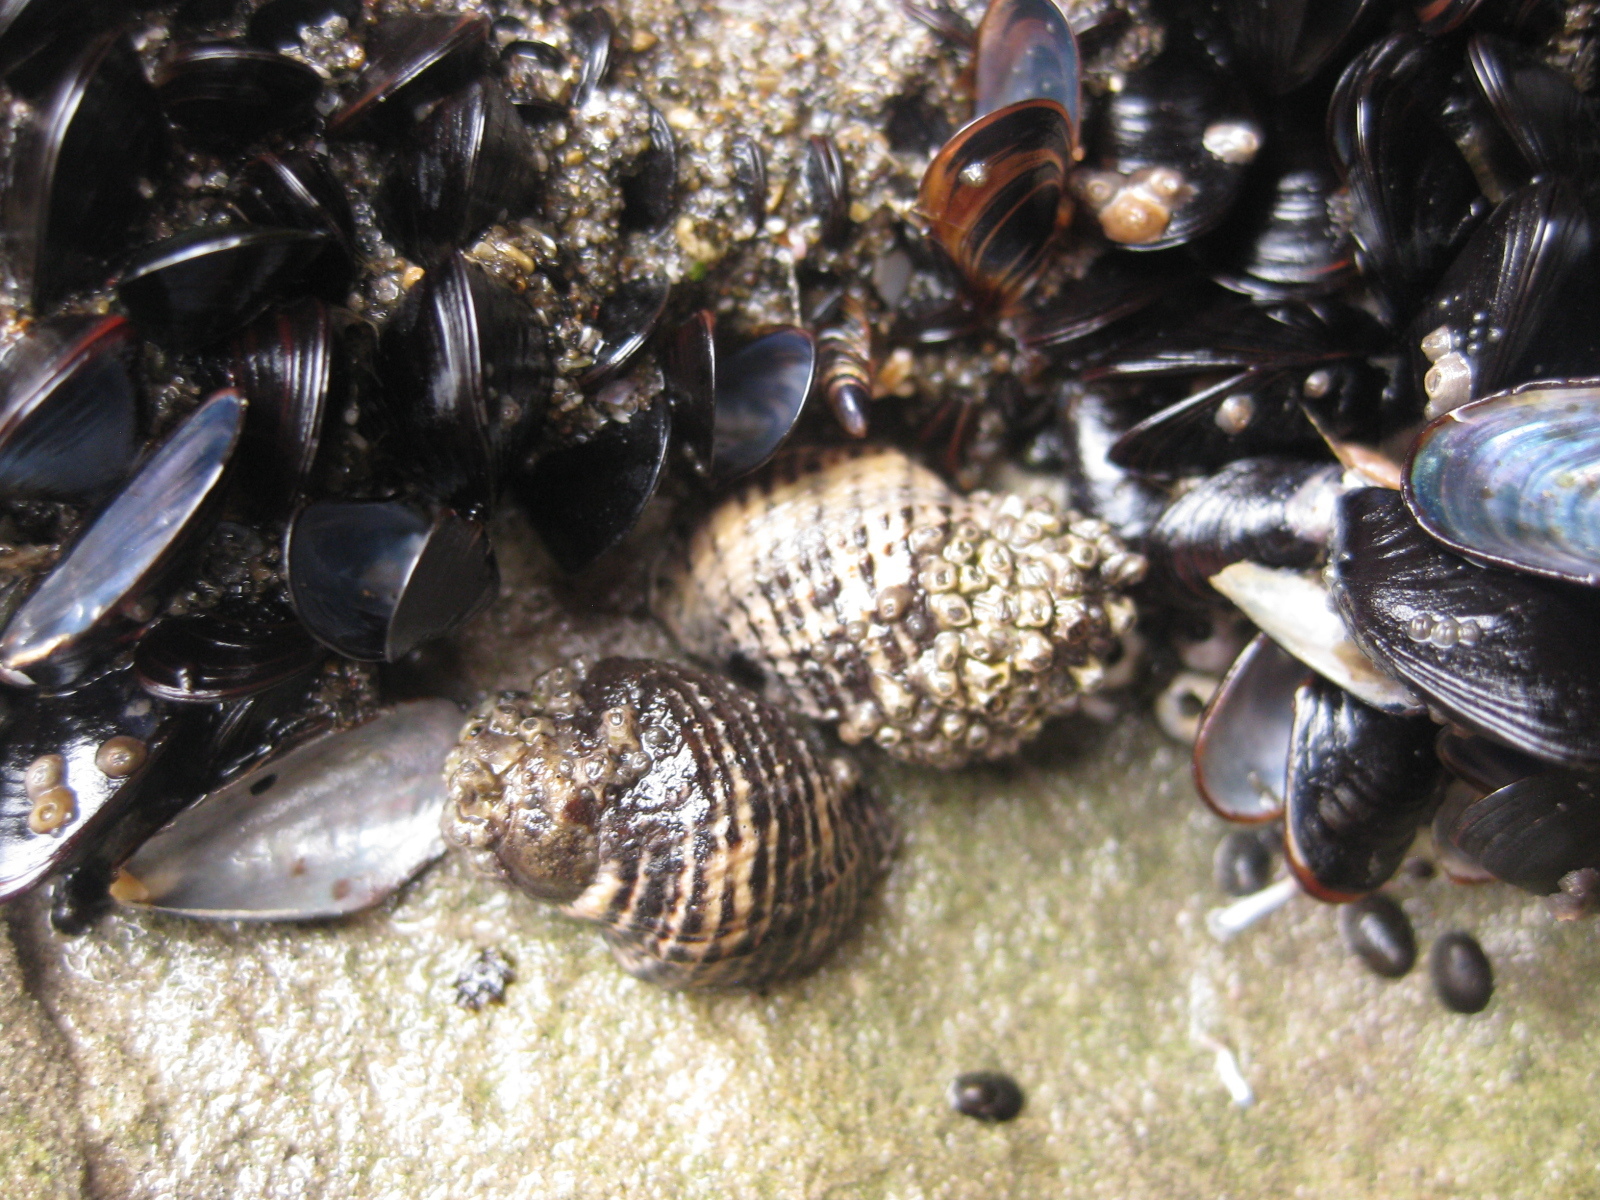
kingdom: Animalia
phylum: Mollusca
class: Gastropoda
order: Neogastropoda
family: Muricidae
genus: Haustrum
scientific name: Haustrum albomarginatum
